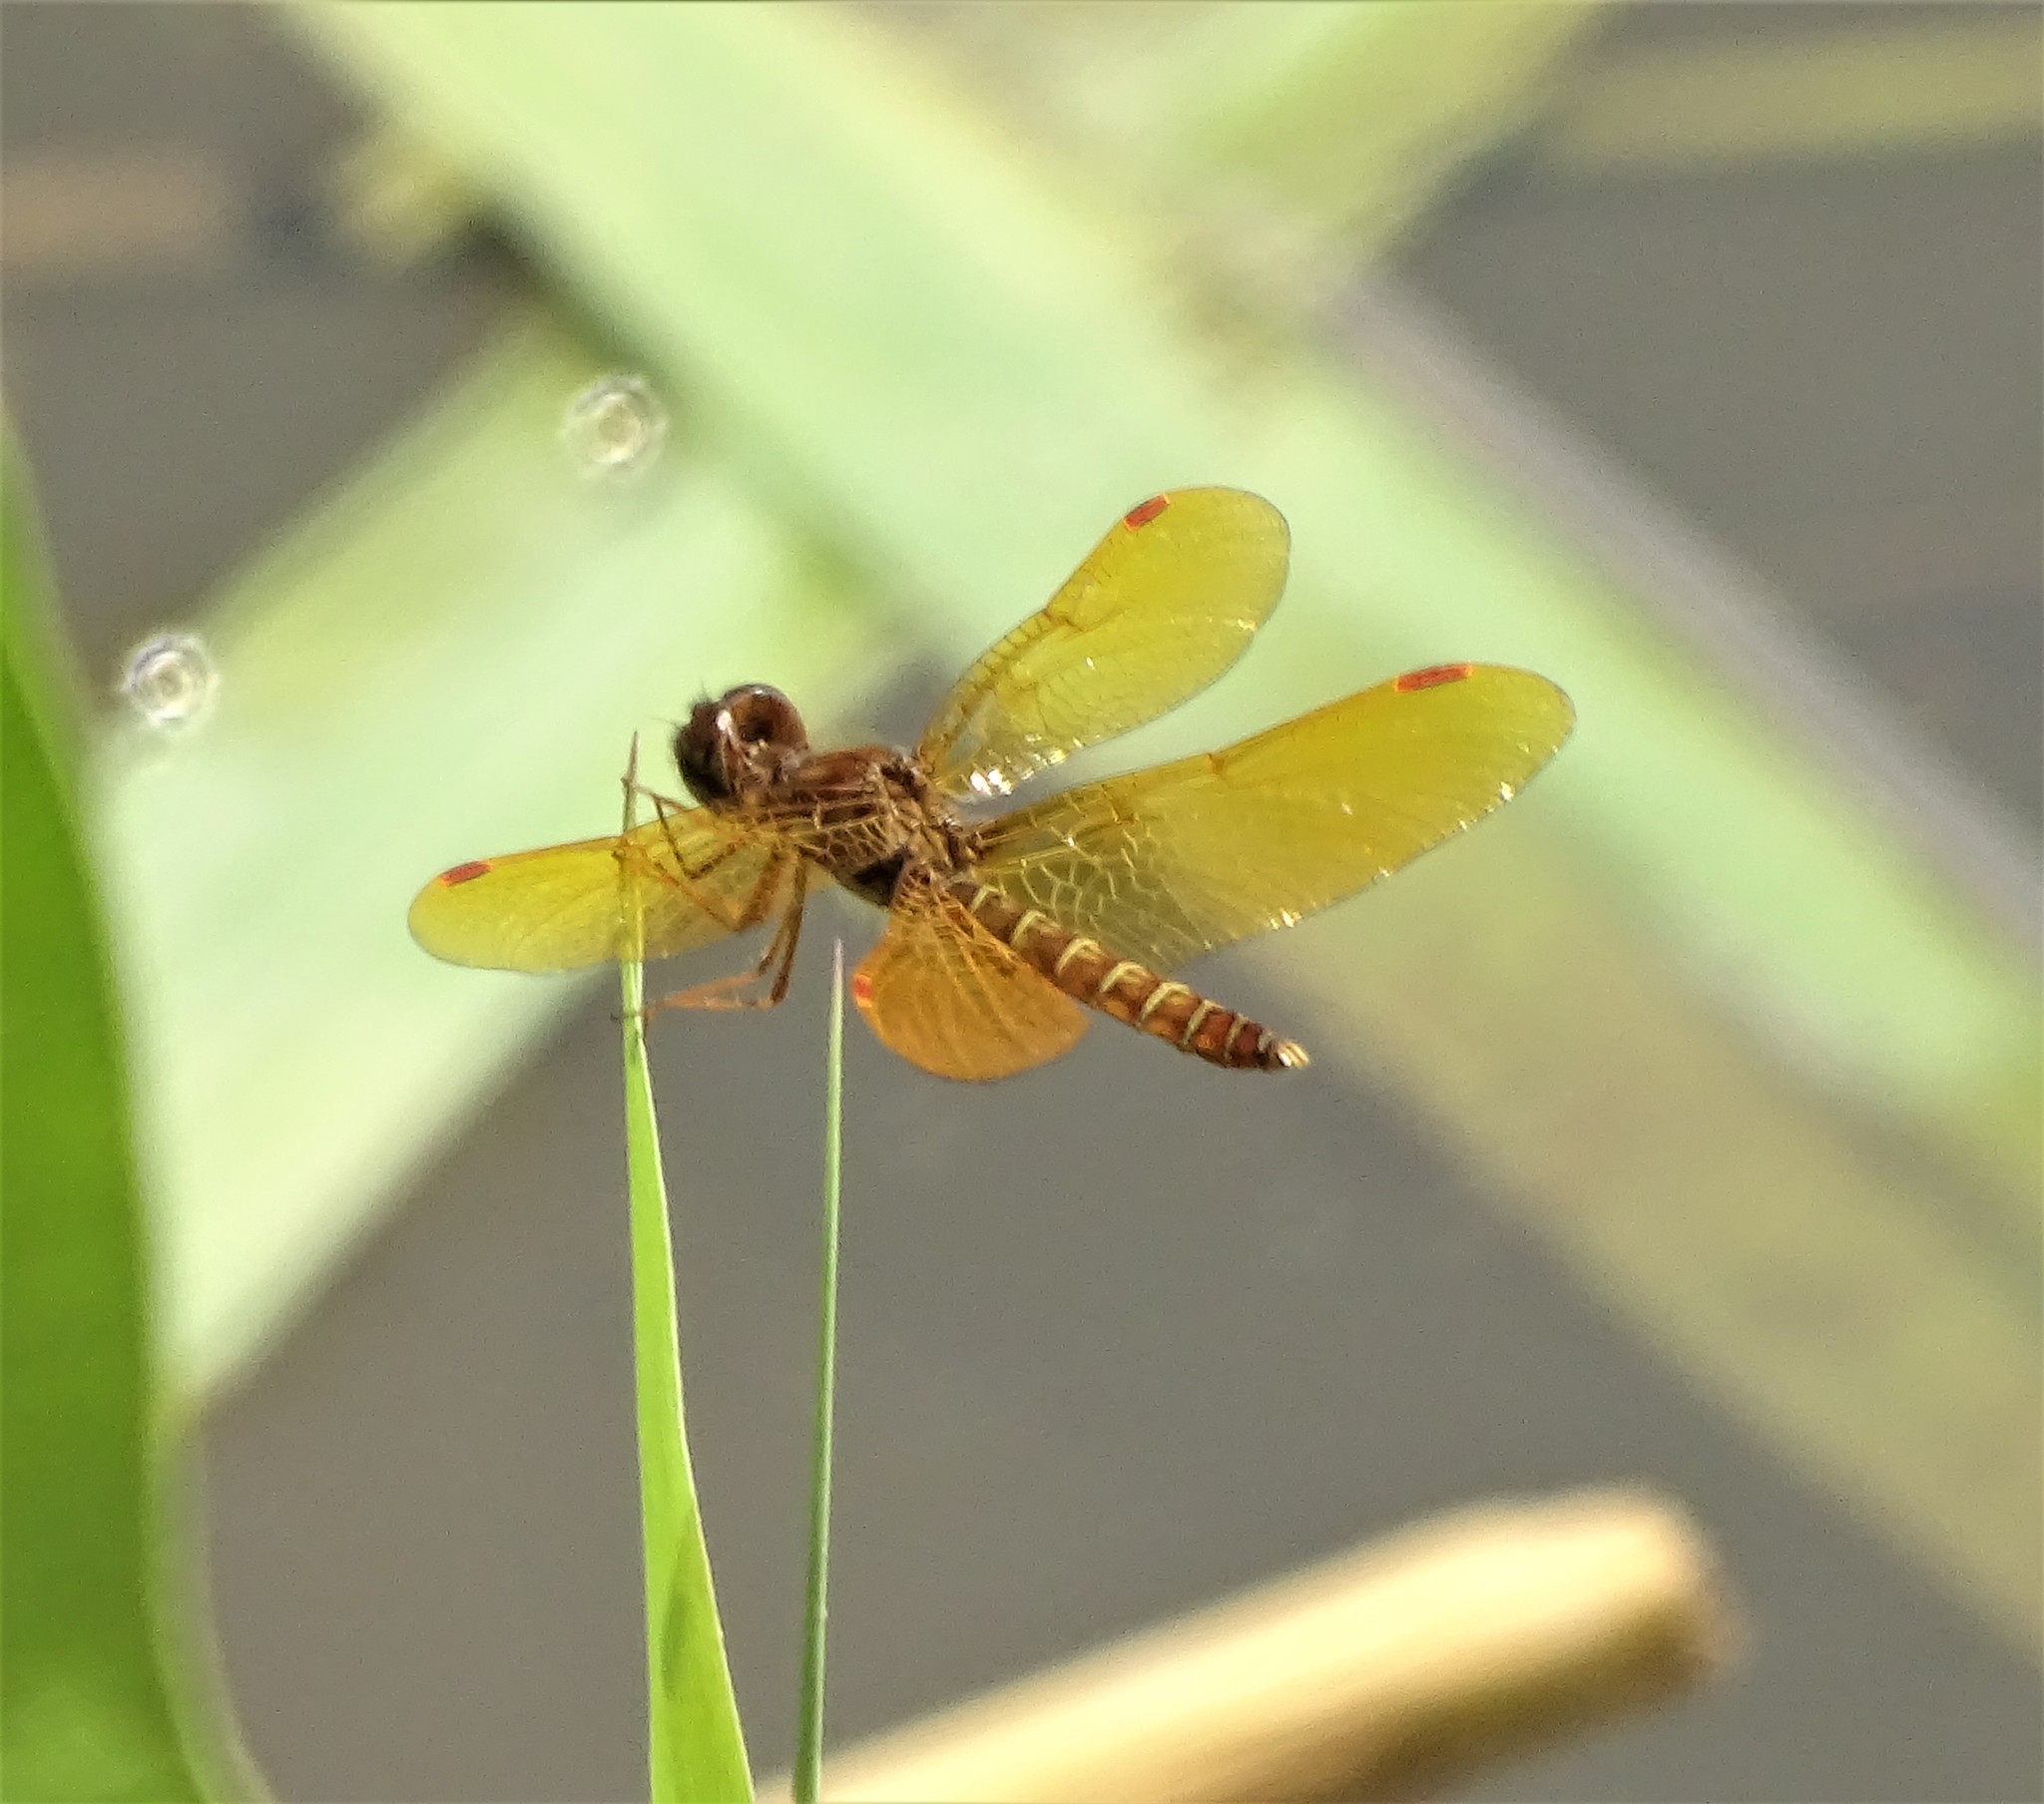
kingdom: Animalia
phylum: Arthropoda
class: Insecta
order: Odonata
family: Libellulidae
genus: Perithemis
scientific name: Perithemis tenera
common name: Eastern amberwing
